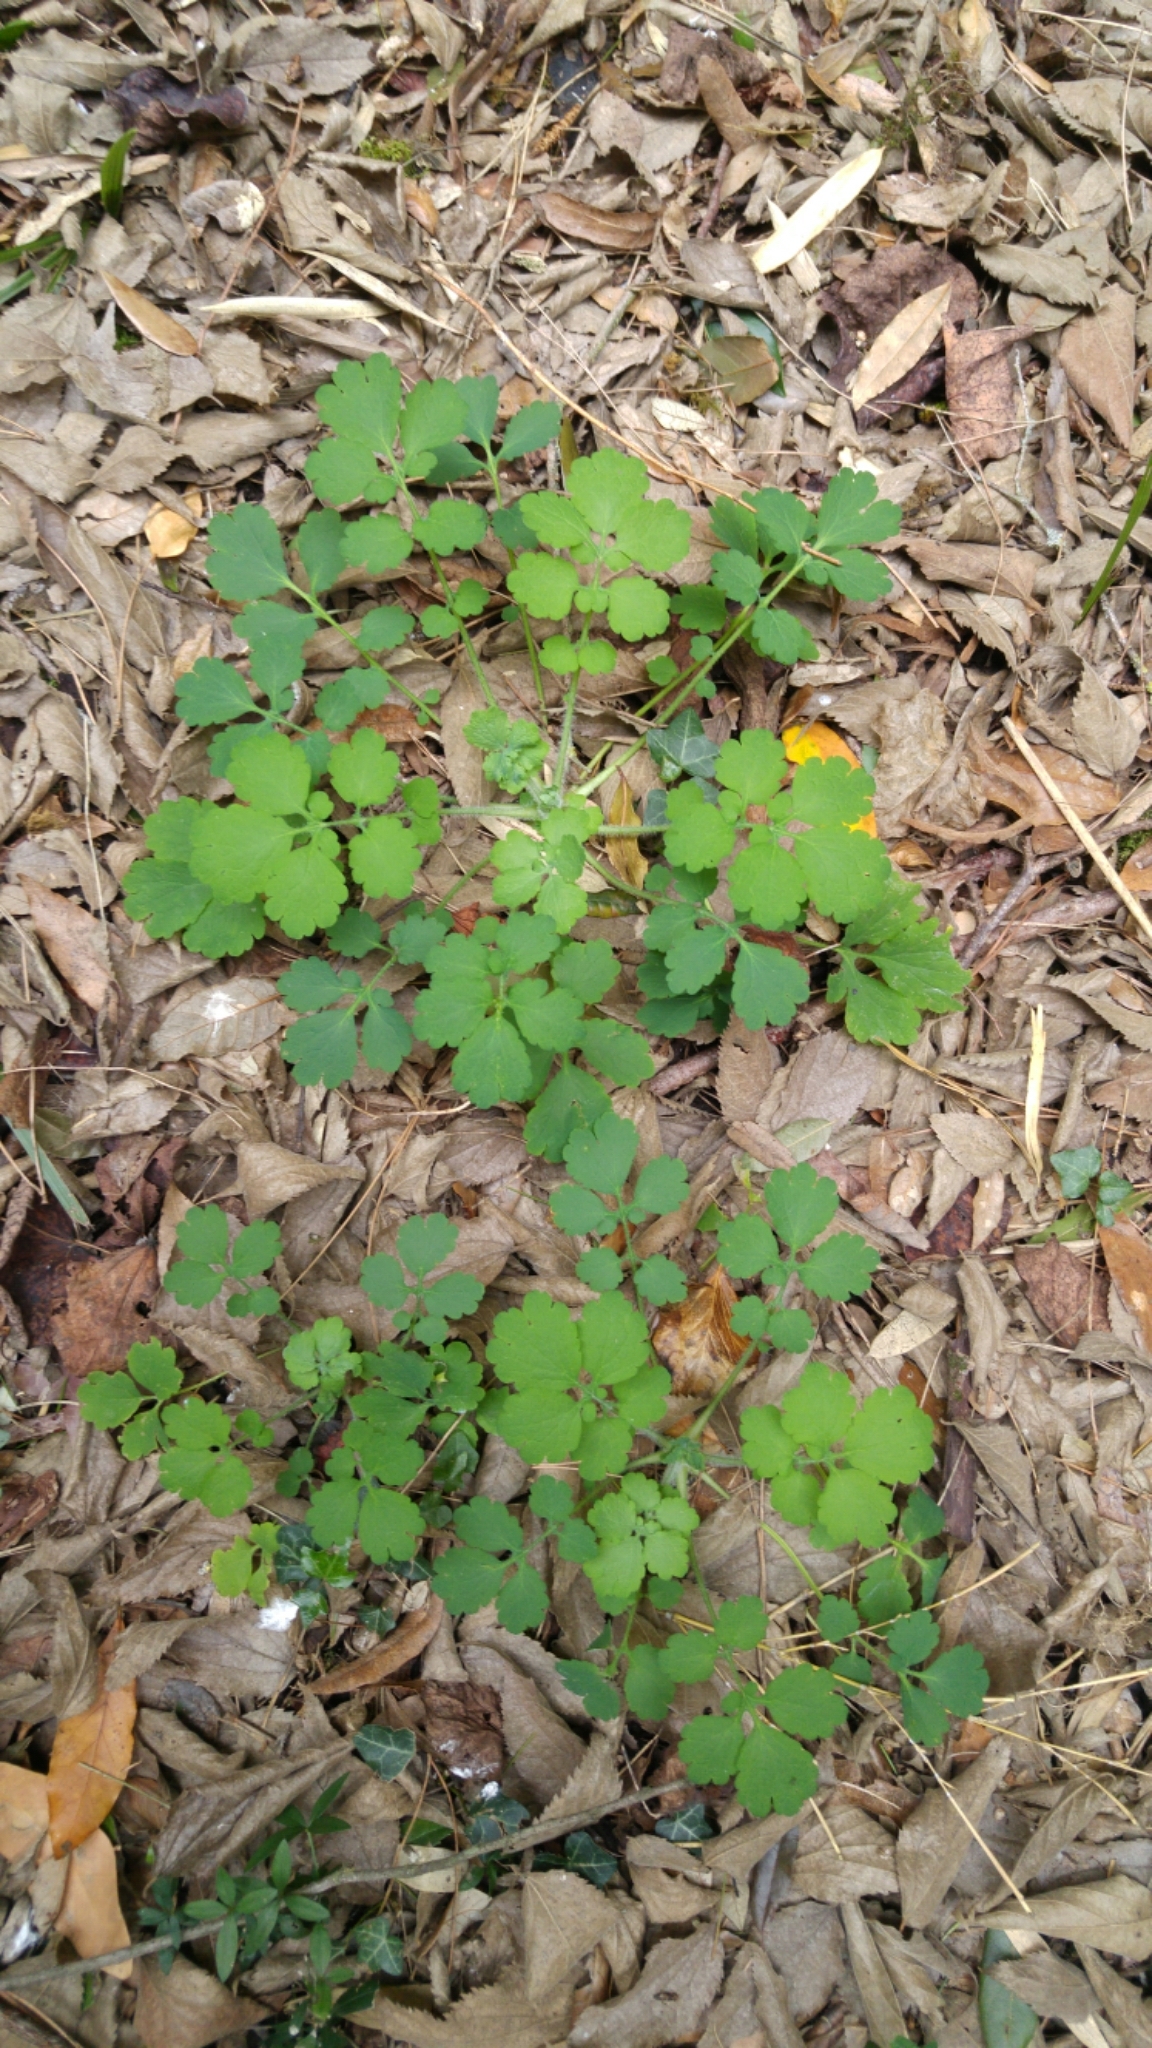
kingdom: Plantae
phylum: Tracheophyta
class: Magnoliopsida
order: Ranunculales
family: Papaveraceae
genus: Chelidonium
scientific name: Chelidonium majus
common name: Greater celandine
